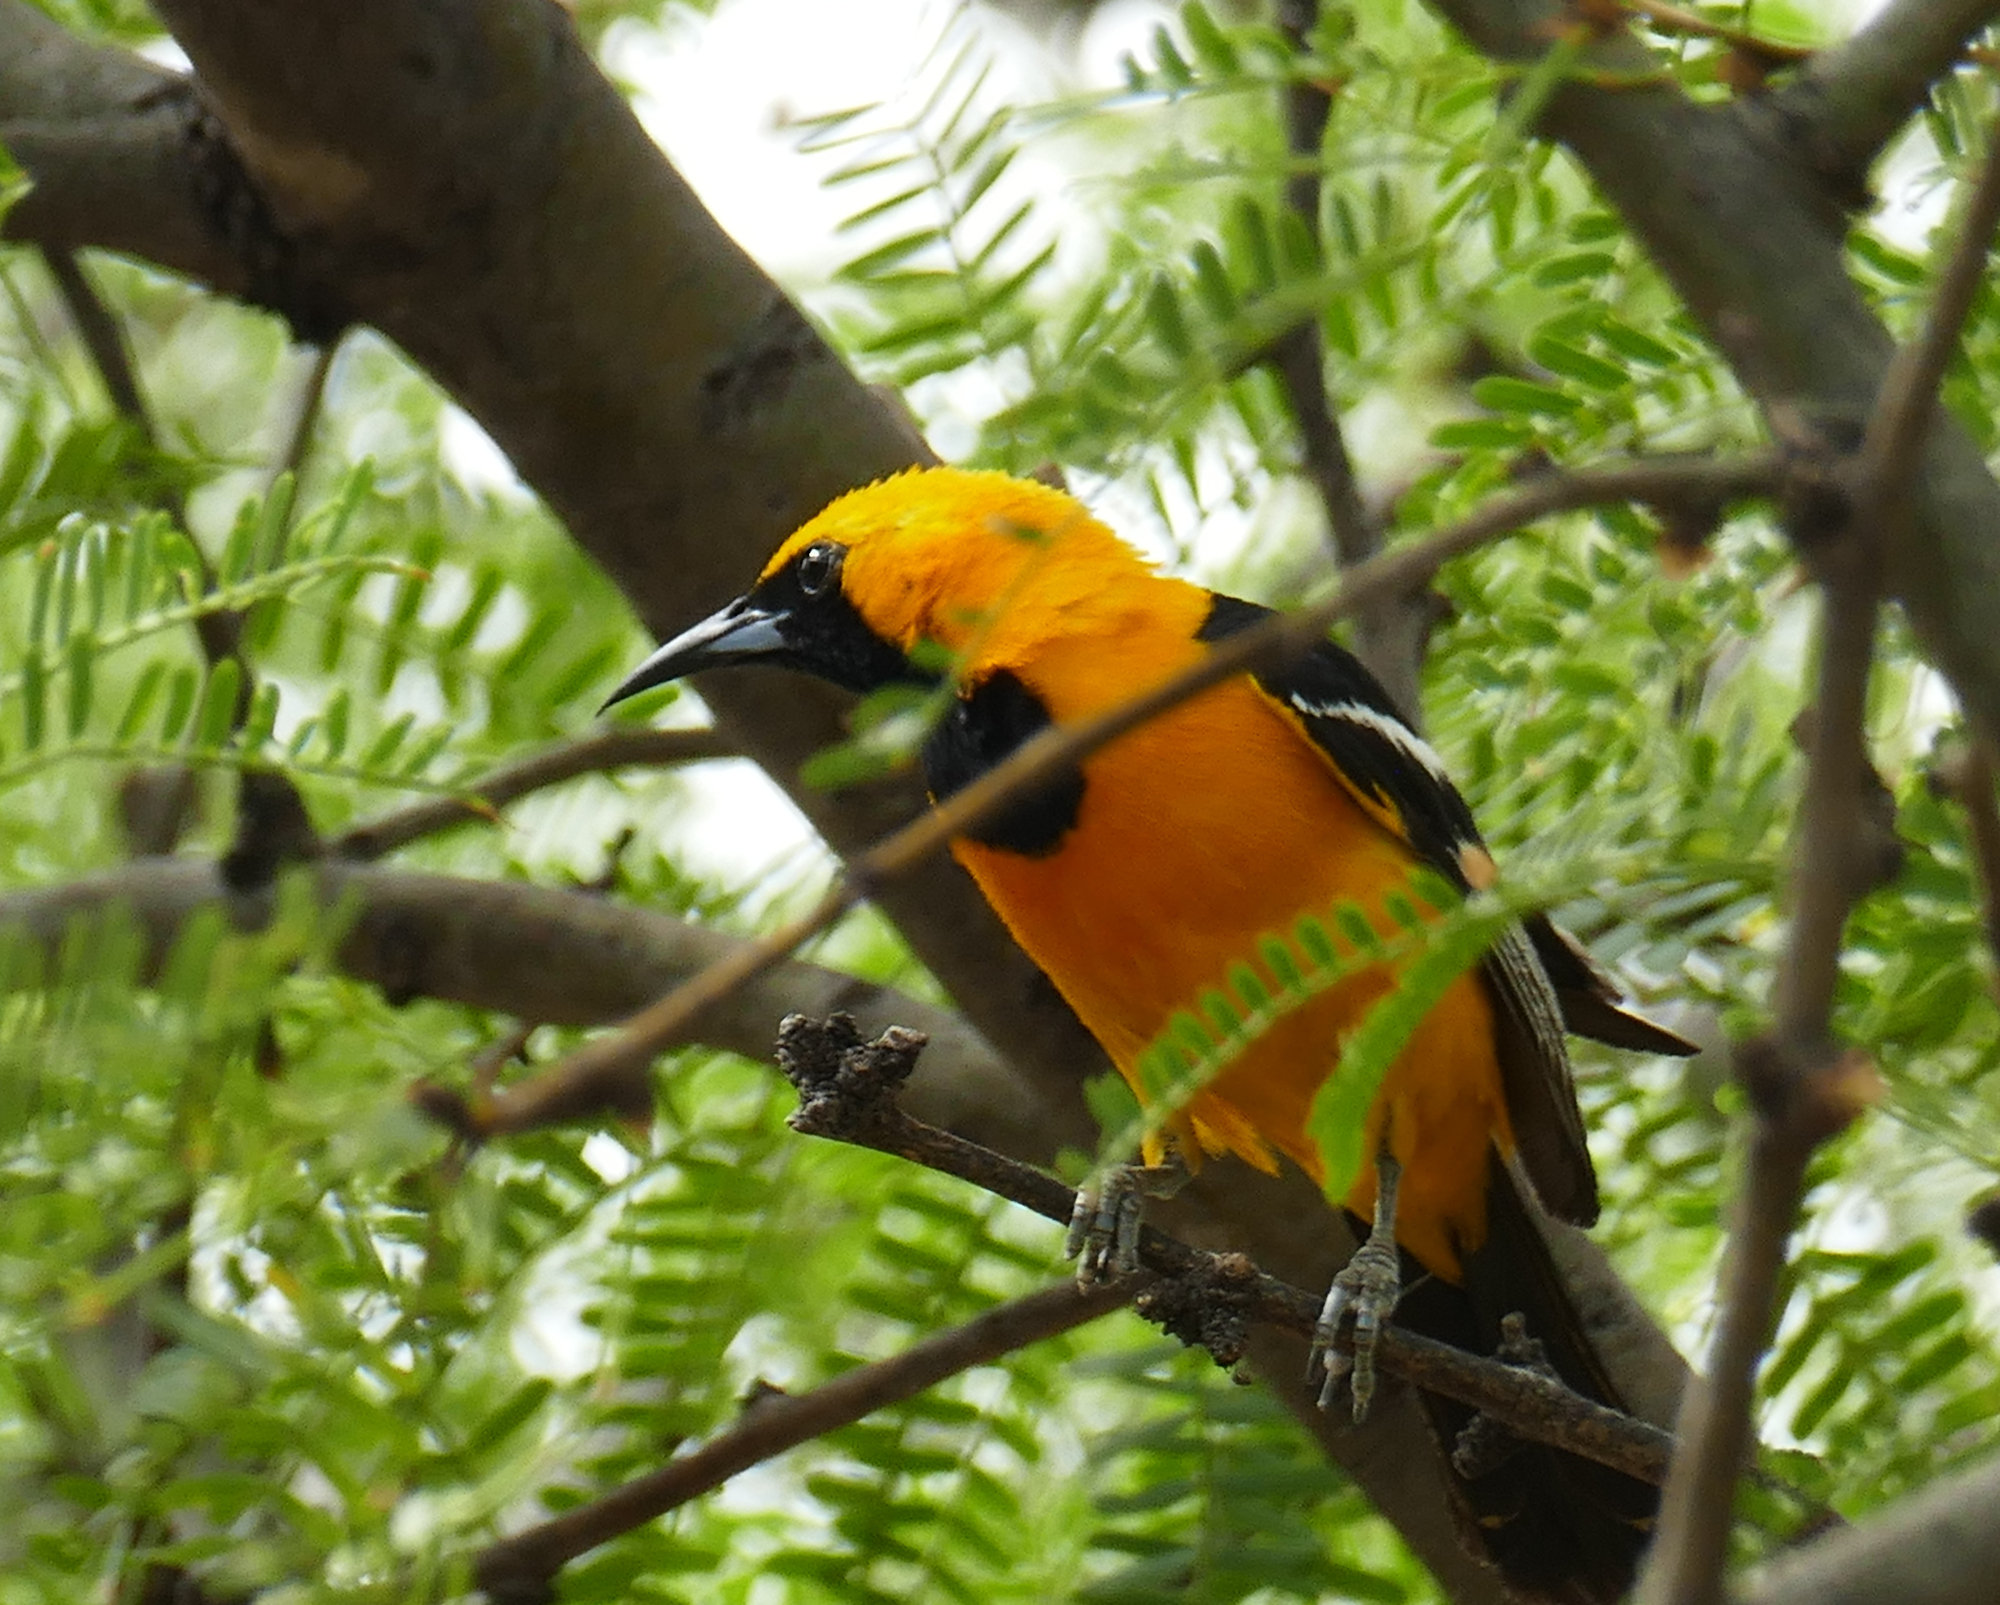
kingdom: Animalia
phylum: Chordata
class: Aves
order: Passeriformes
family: Icteridae
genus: Icterus
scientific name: Icterus cucullatus
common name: Hooded oriole
